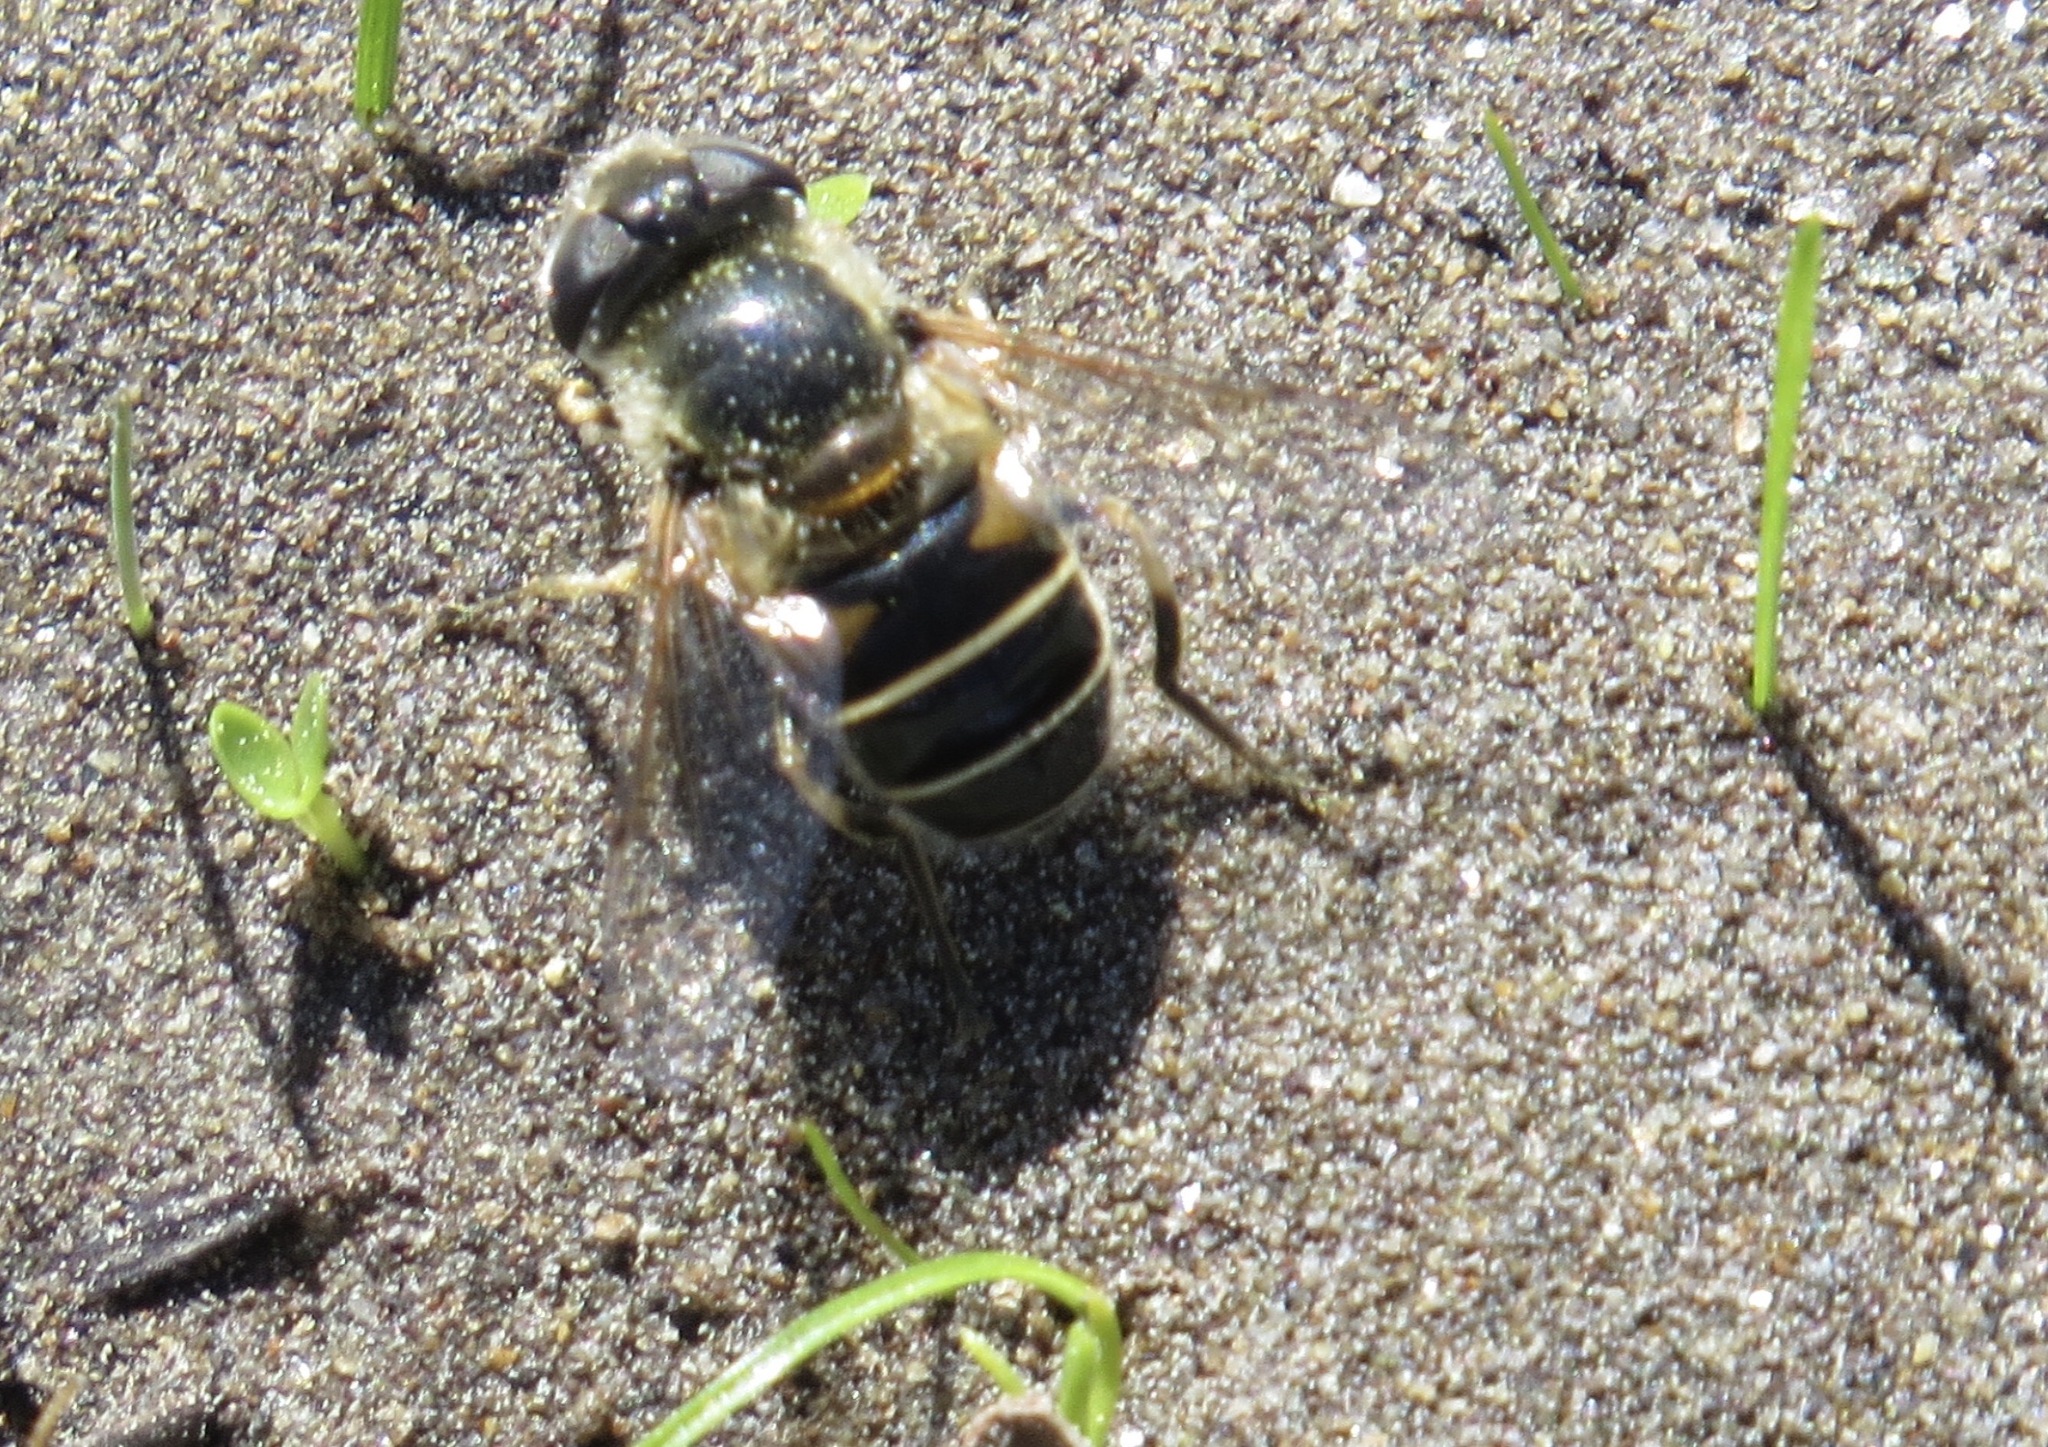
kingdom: Animalia
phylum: Arthropoda
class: Insecta
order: Diptera
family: Syrphidae
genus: Eristalis
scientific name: Eristalis hirta
